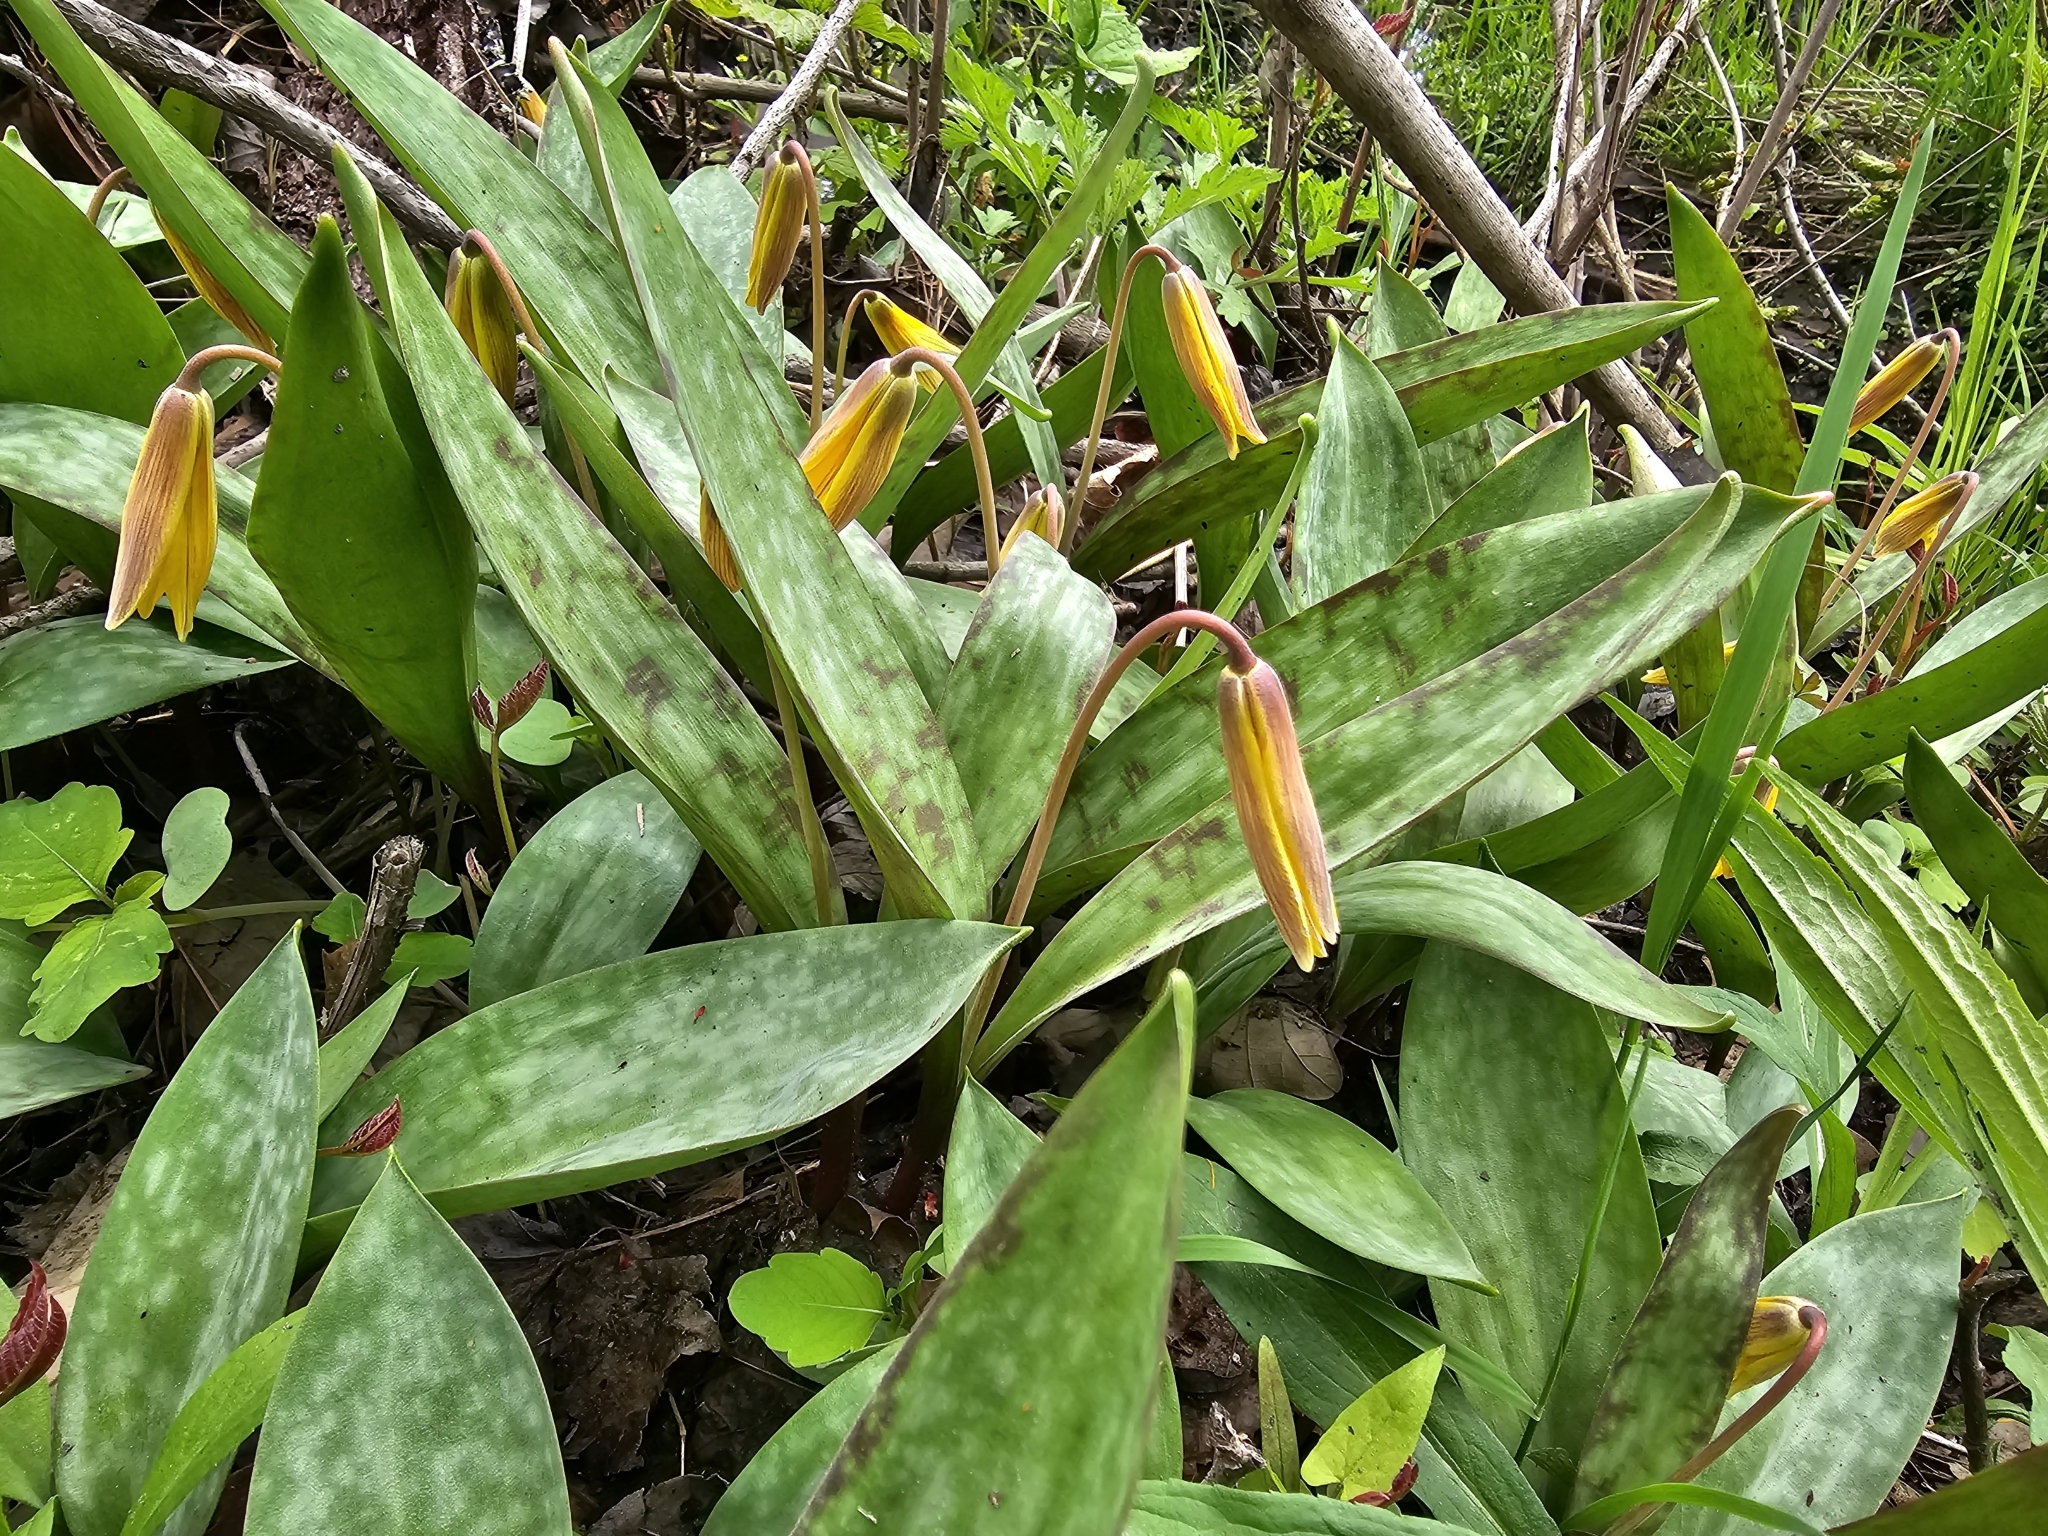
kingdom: Plantae
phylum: Tracheophyta
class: Liliopsida
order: Liliales
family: Liliaceae
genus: Erythronium
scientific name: Erythronium americanum
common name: Yellow adder's-tongue
